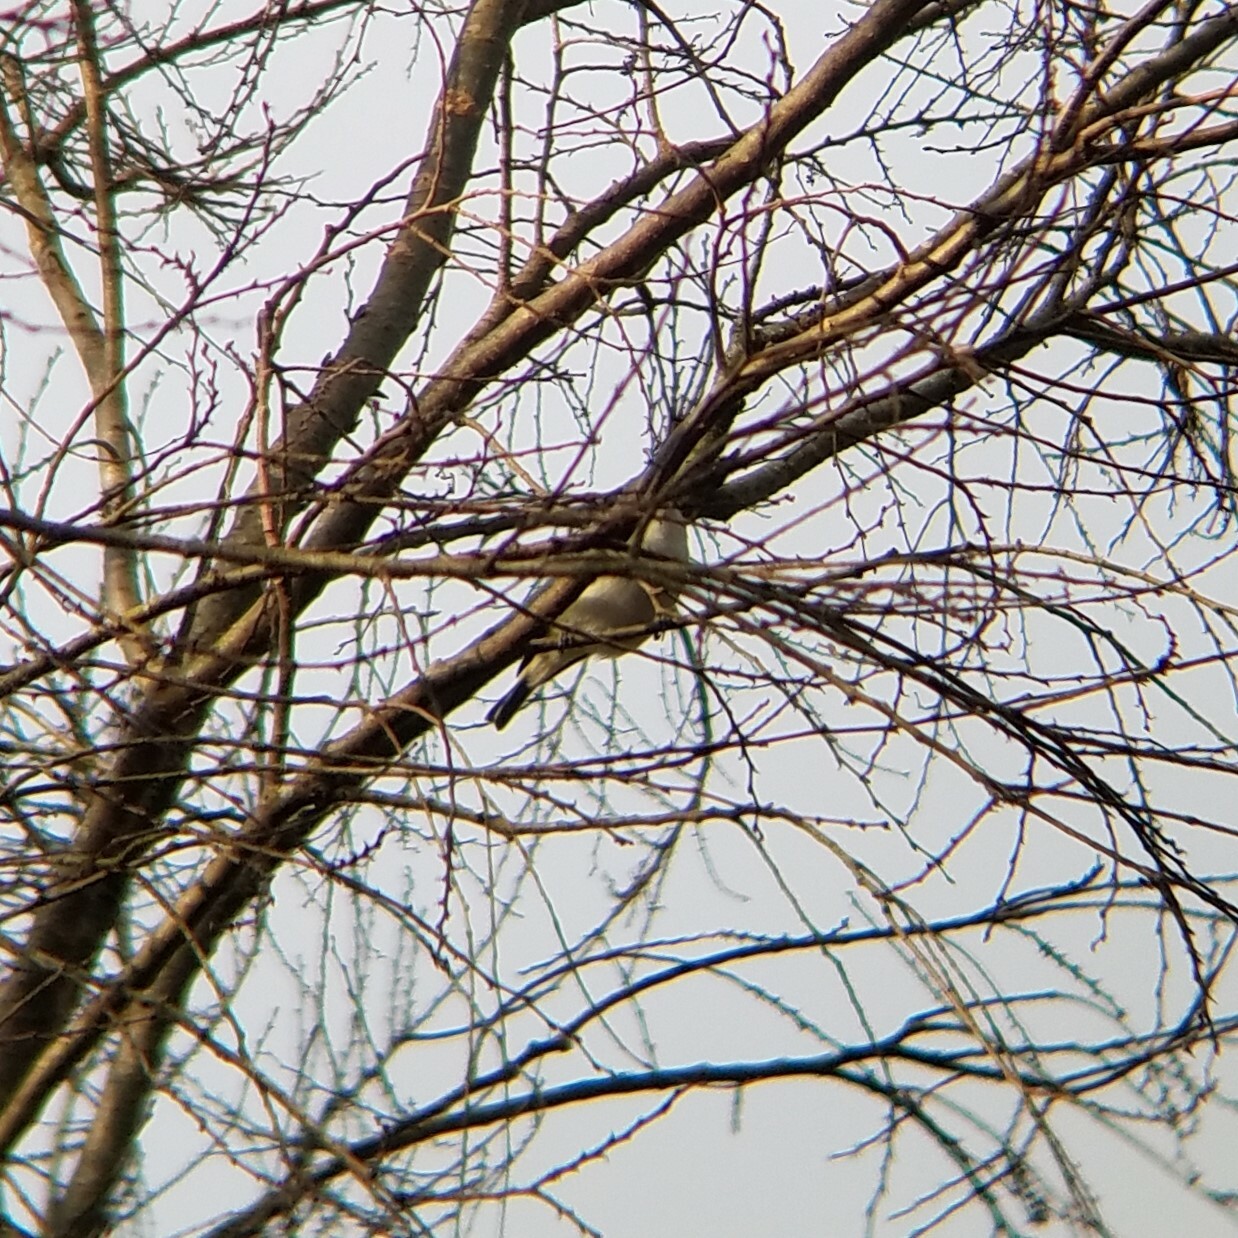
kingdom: Animalia
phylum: Chordata
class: Aves
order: Passeriformes
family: Vireonidae
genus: Vireo
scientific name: Vireo solitarius
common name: Blue-headed vireo
